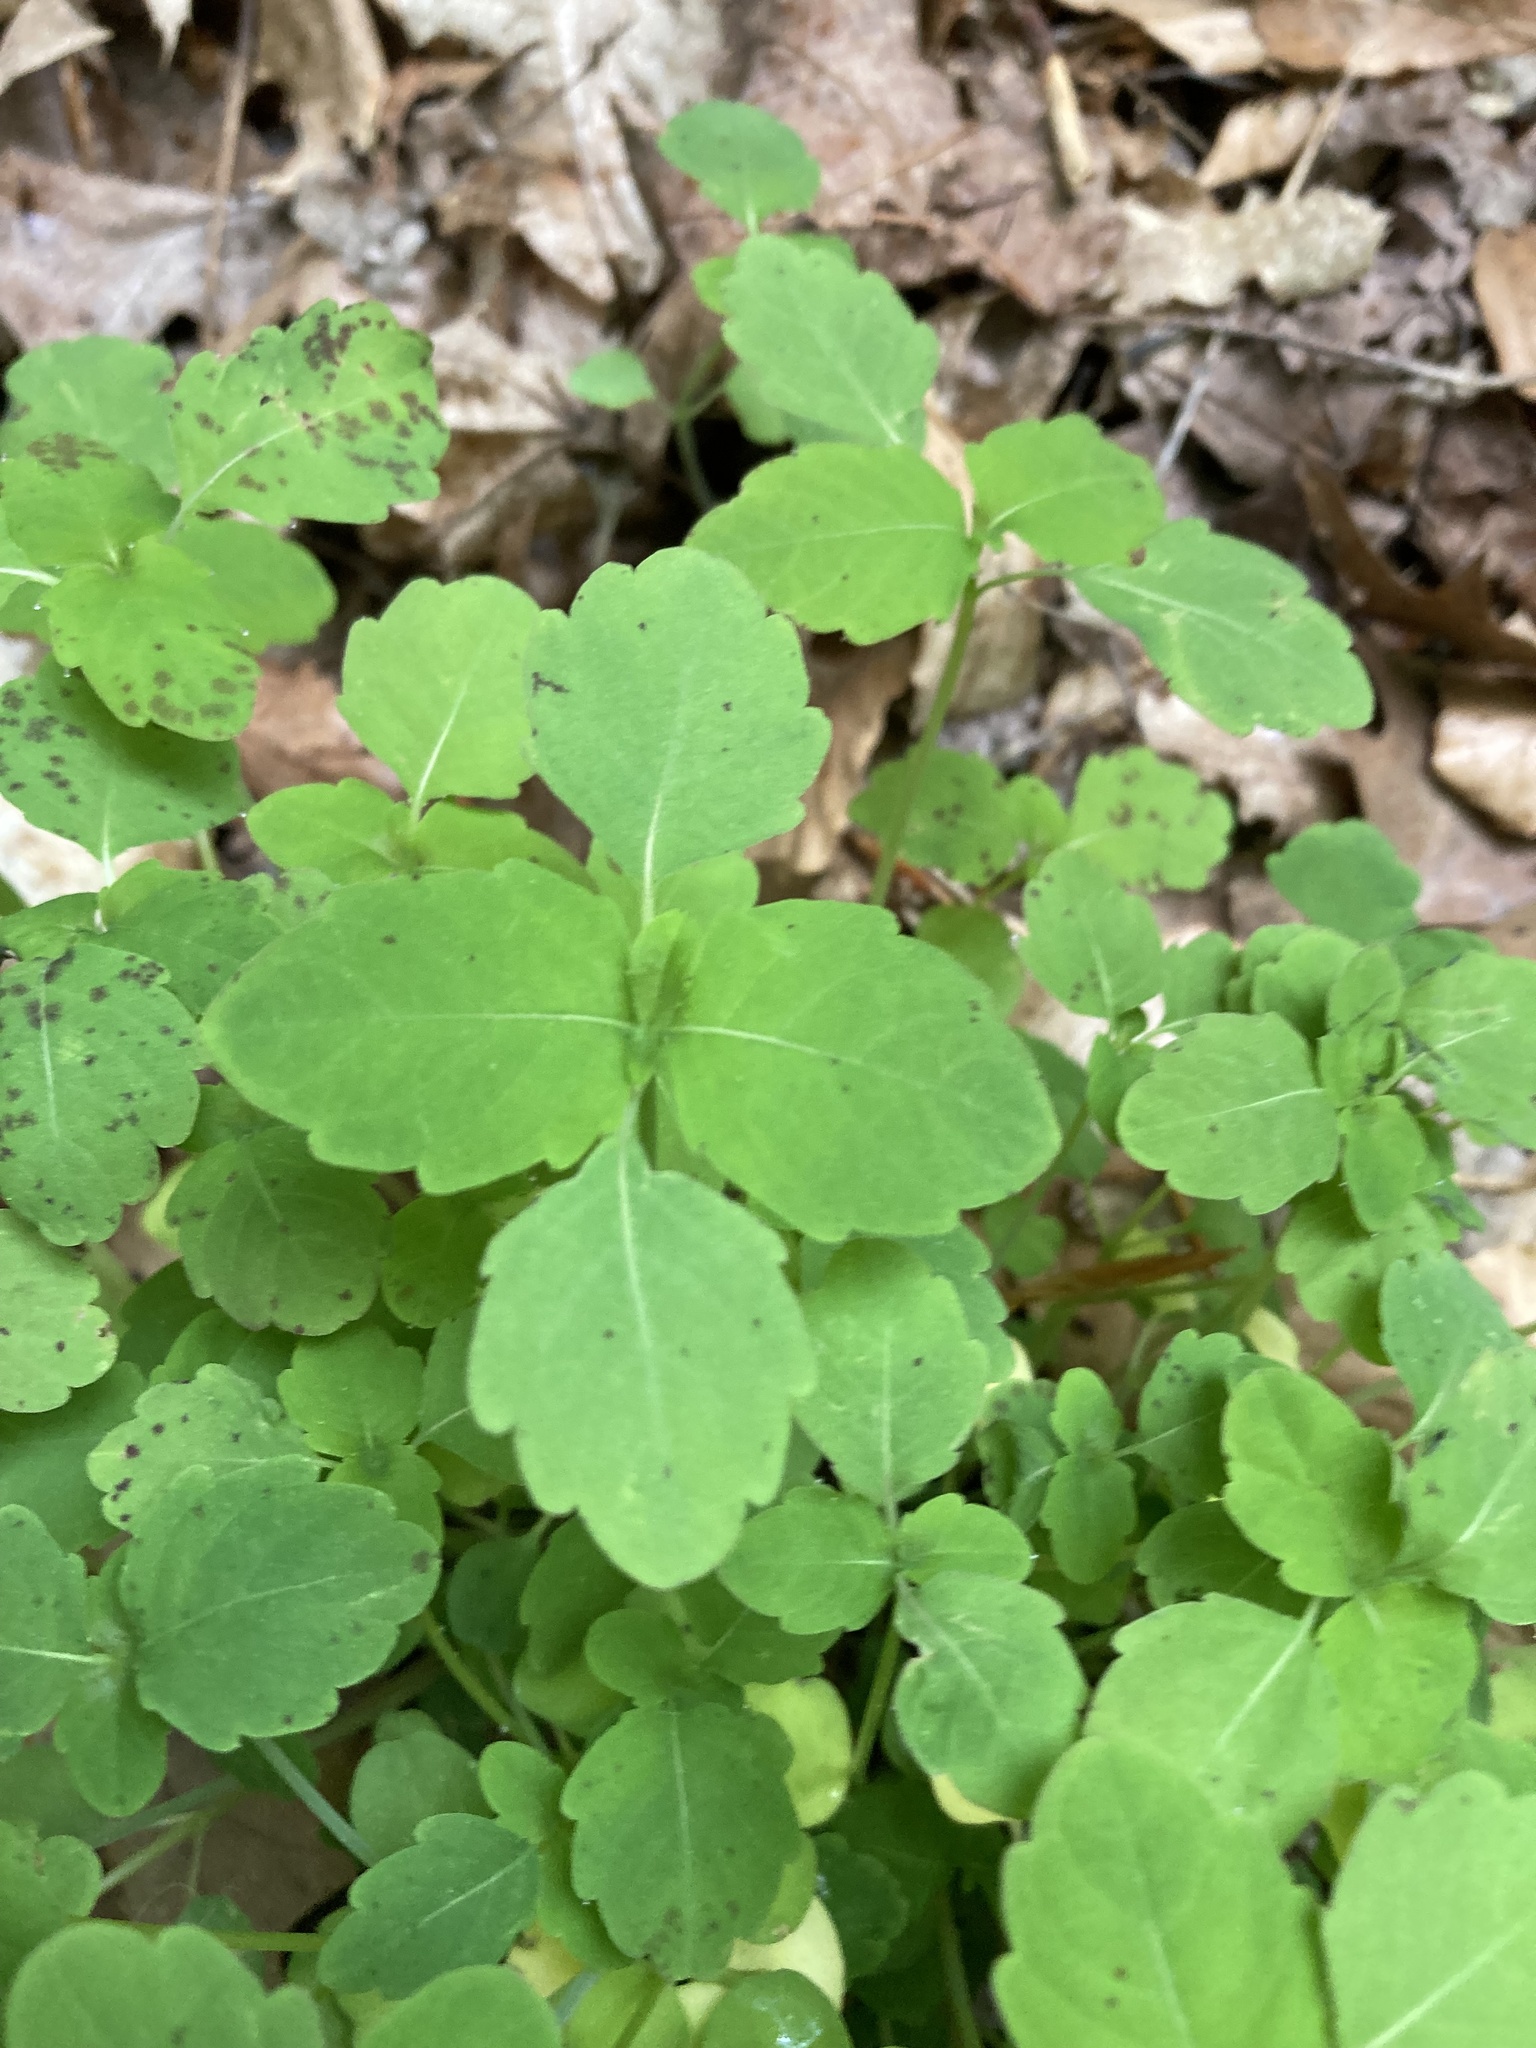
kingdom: Plantae
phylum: Tracheophyta
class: Magnoliopsida
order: Ericales
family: Balsaminaceae
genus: Impatiens
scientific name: Impatiens capensis
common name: Orange balsam
